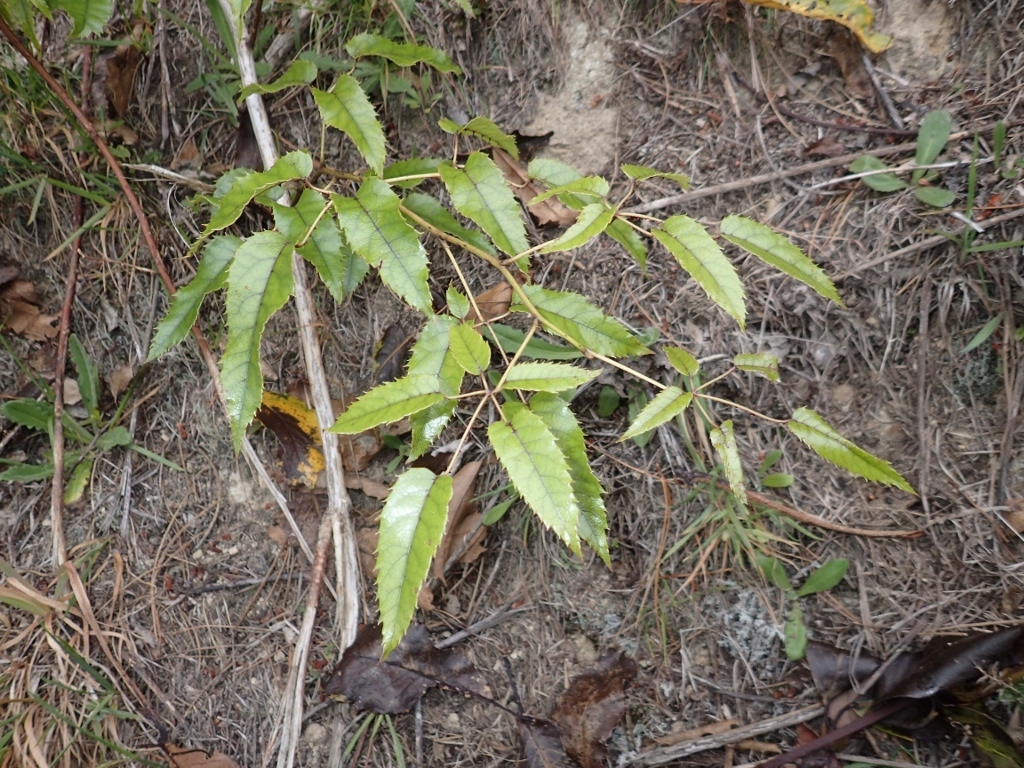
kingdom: Plantae
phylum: Tracheophyta
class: Magnoliopsida
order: Rosales
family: Rosaceae
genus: Rubus
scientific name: Rubus cissoides
